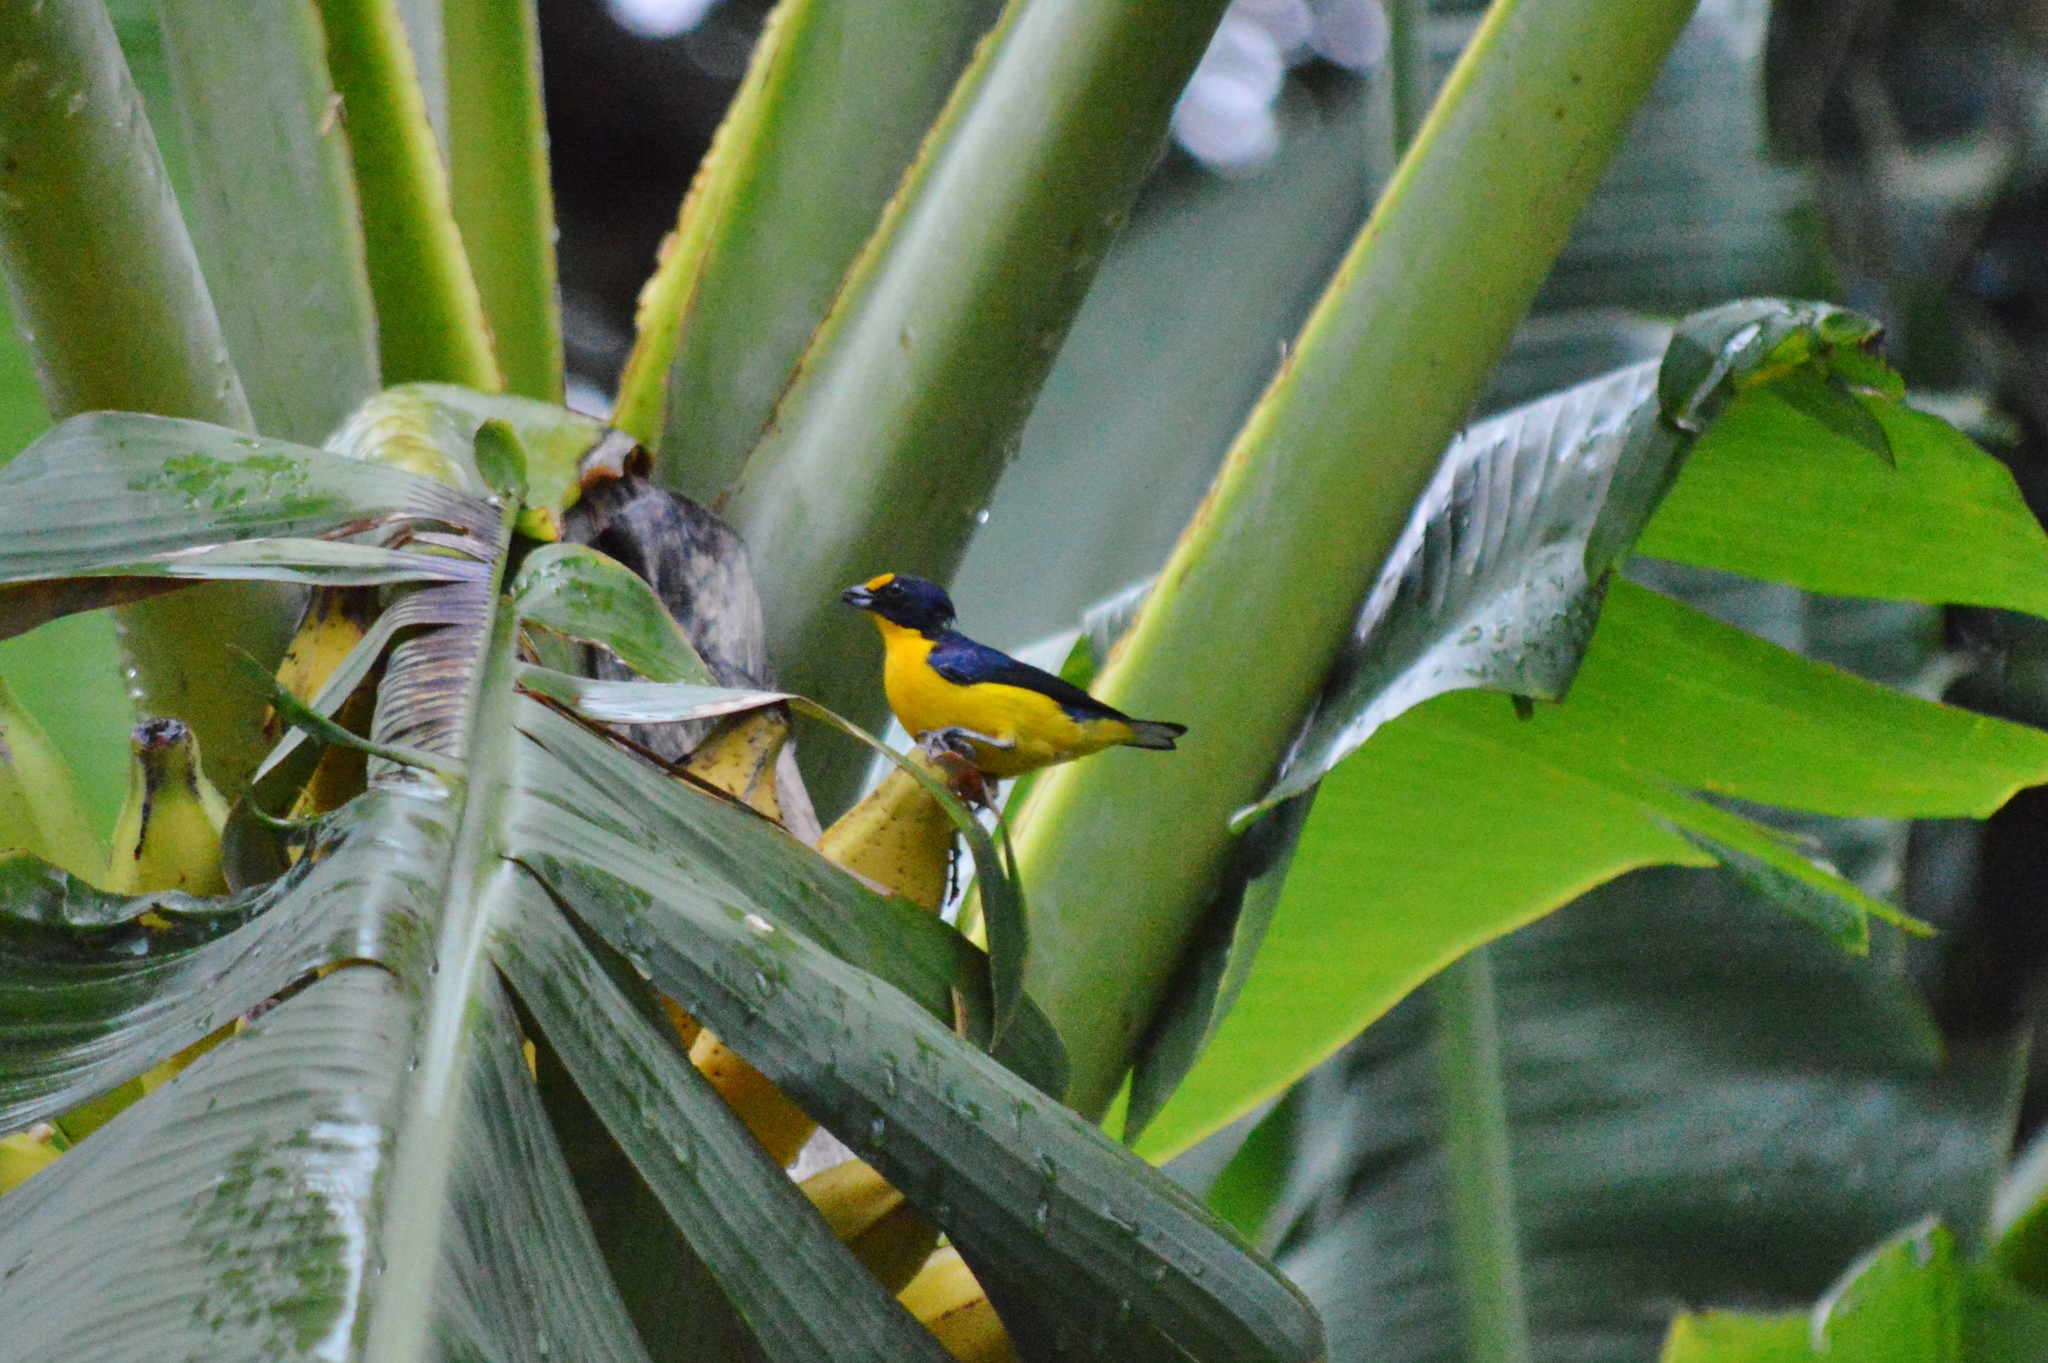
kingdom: Animalia
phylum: Chordata
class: Aves
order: Passeriformes
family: Fringillidae
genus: Euphonia
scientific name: Euphonia violacea
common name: Violaceous euphonia
